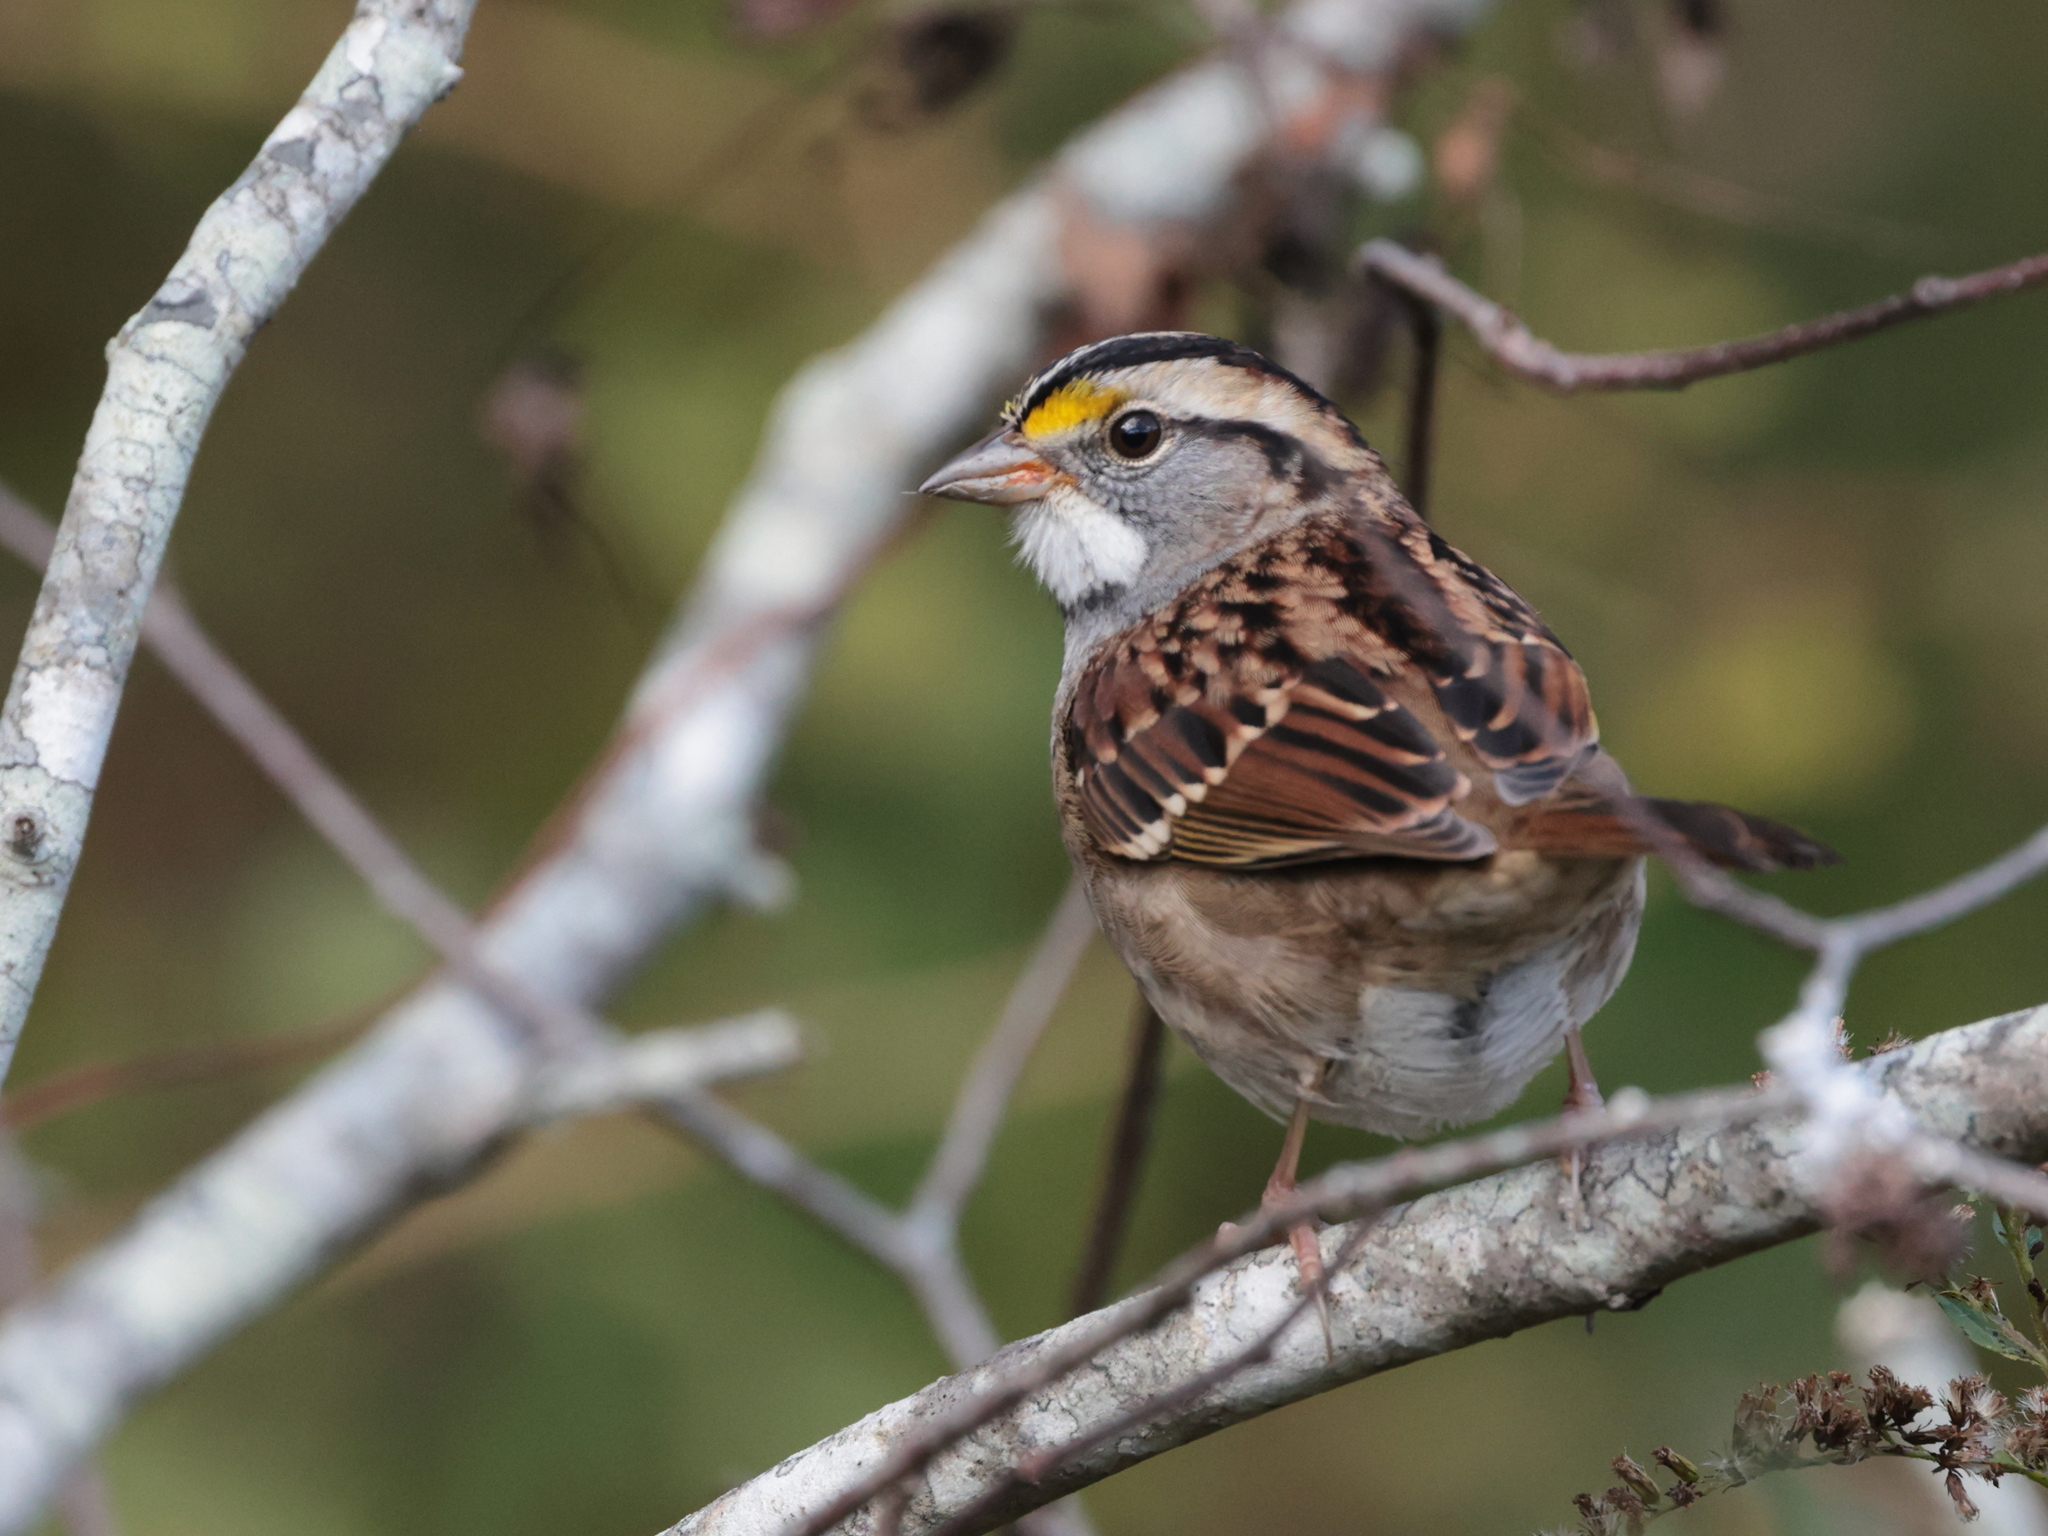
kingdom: Animalia
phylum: Chordata
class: Aves
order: Passeriformes
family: Passerellidae
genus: Zonotrichia
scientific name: Zonotrichia albicollis
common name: White-throated sparrow
